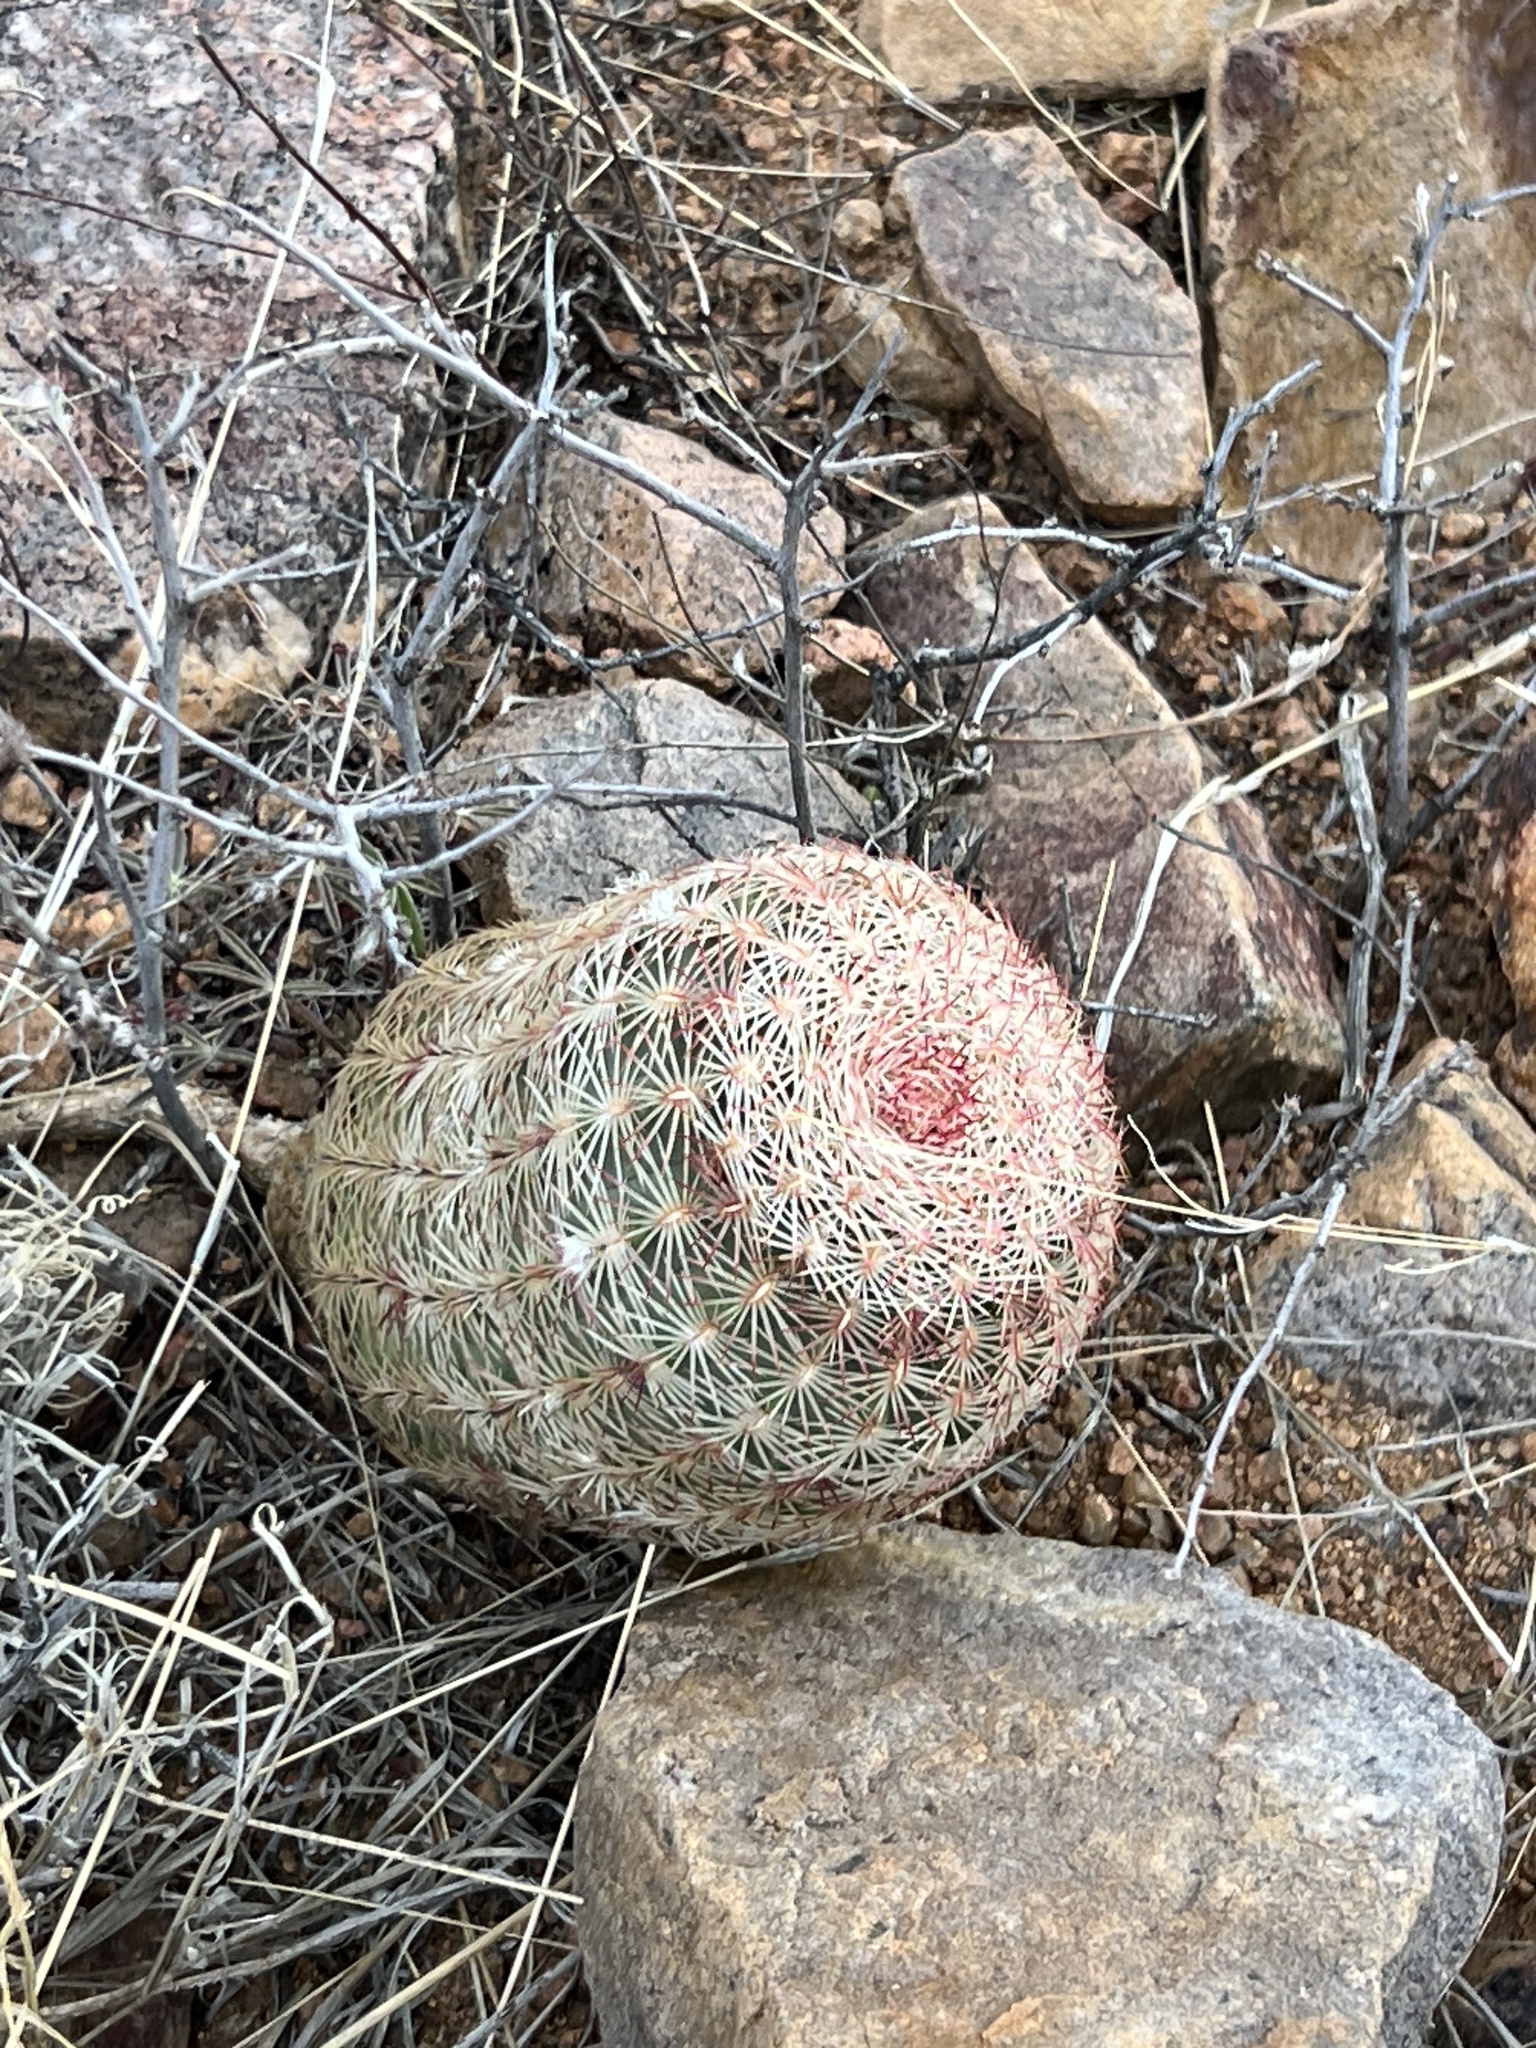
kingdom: Plantae
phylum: Tracheophyta
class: Magnoliopsida
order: Caryophyllales
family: Cactaceae
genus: Echinocereus
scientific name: Echinocereus rigidissimus
